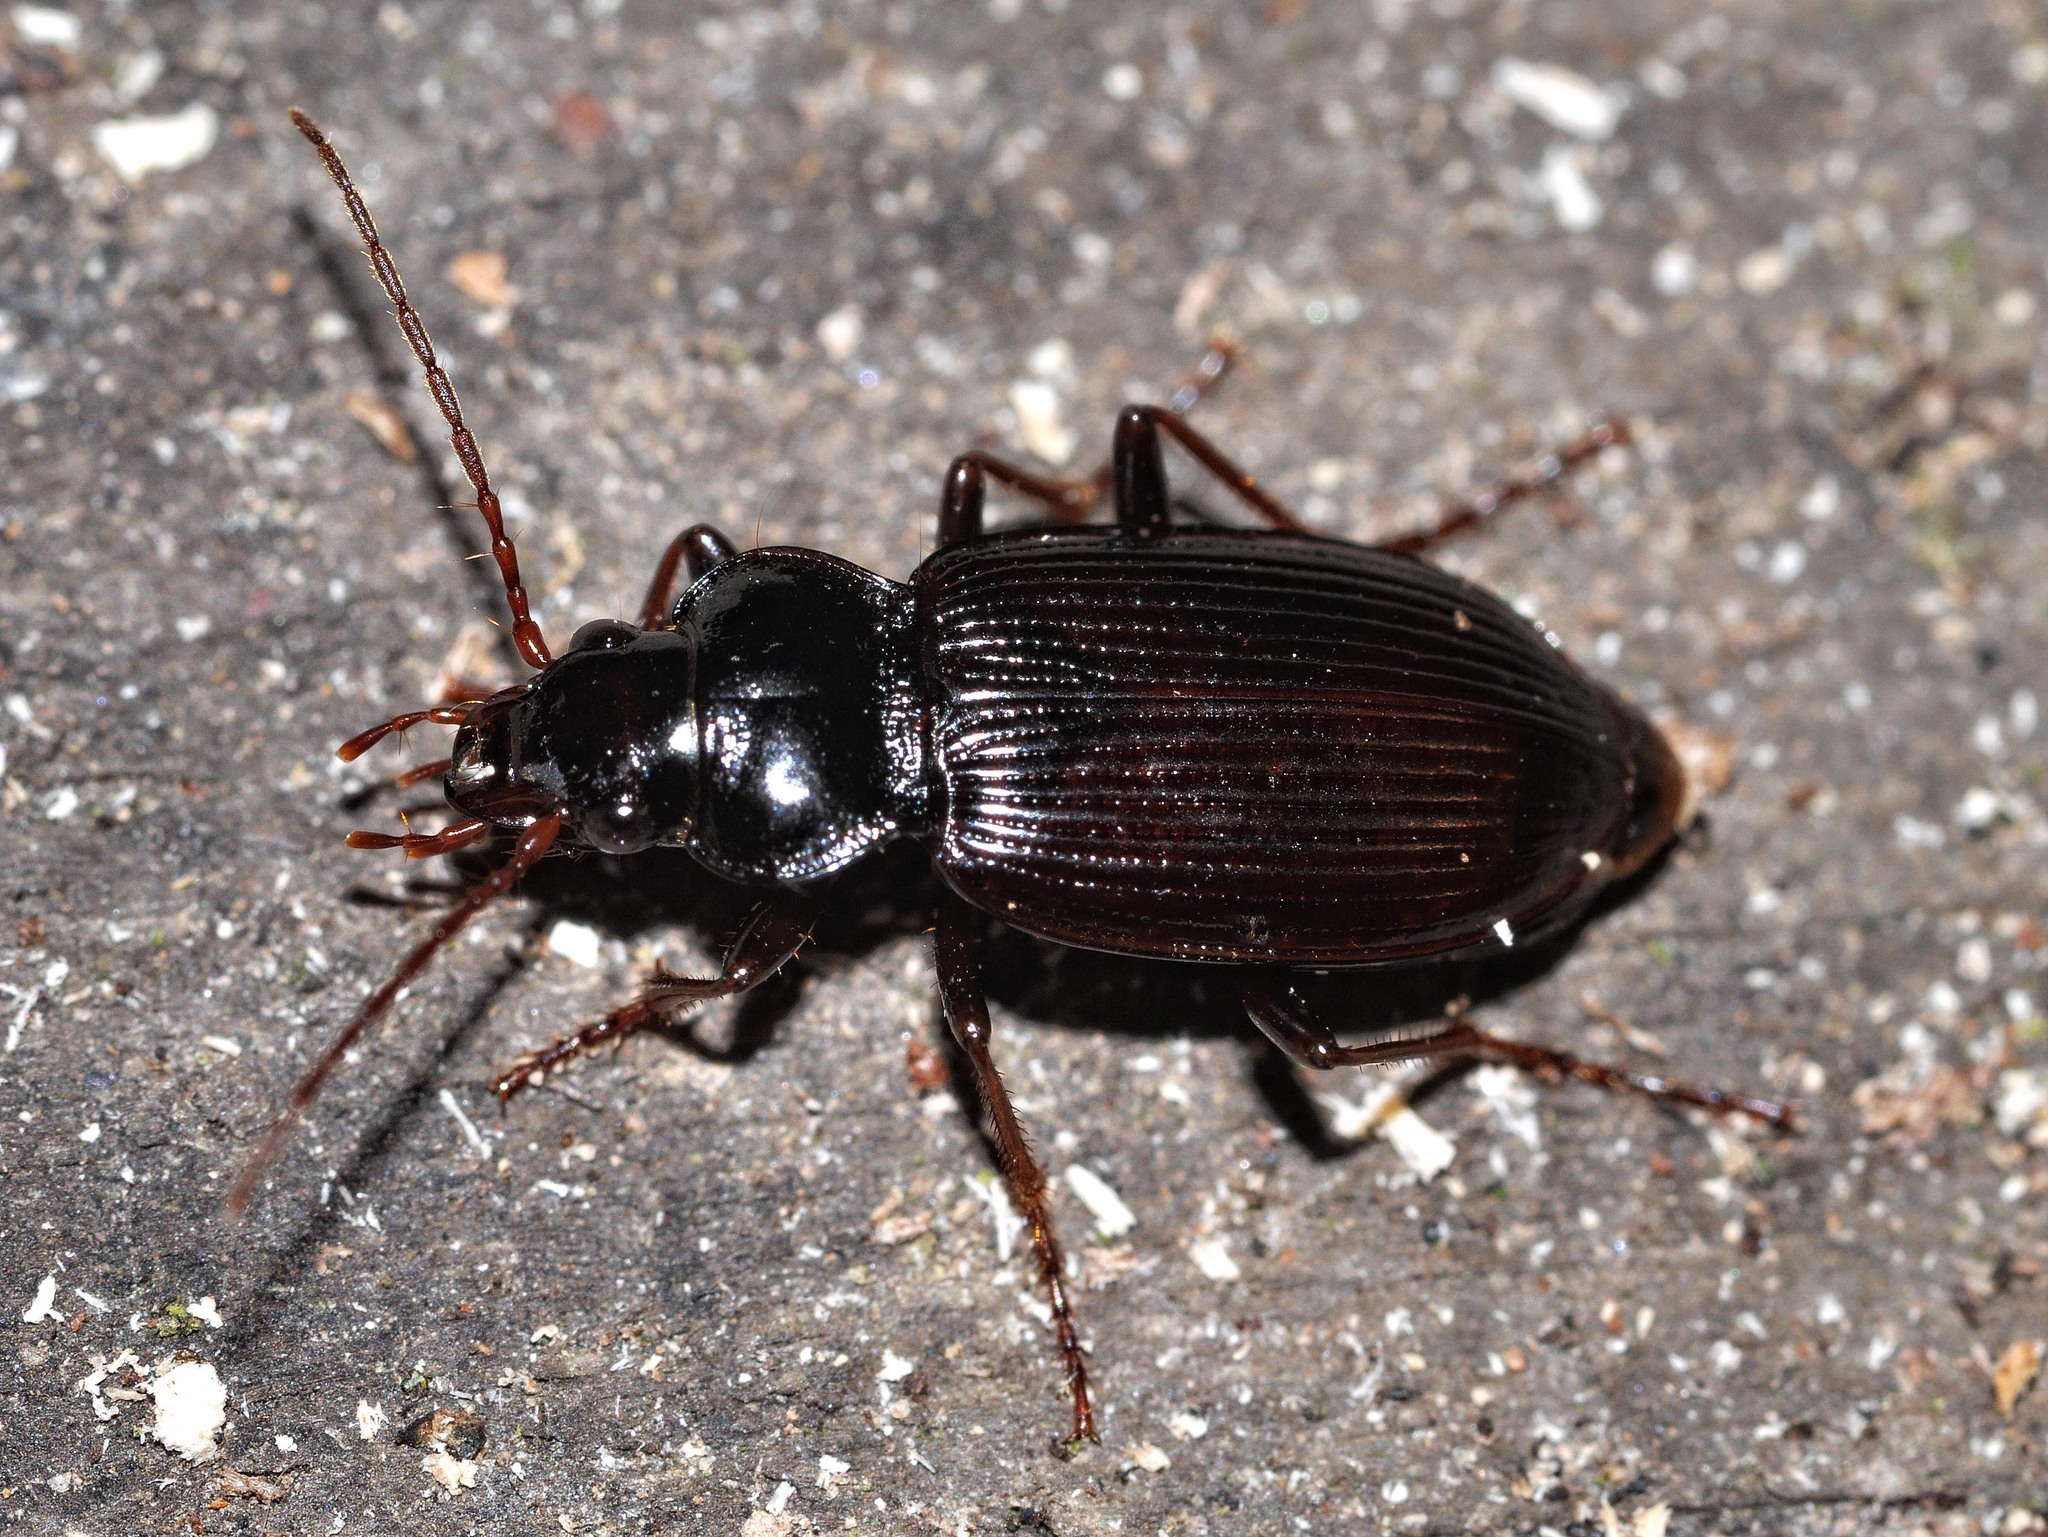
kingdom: Animalia
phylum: Arthropoda
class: Insecta
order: Coleoptera
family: Carabidae
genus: Nebria
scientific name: Nebria brevicollis
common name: Short-necked gazelle beetle
